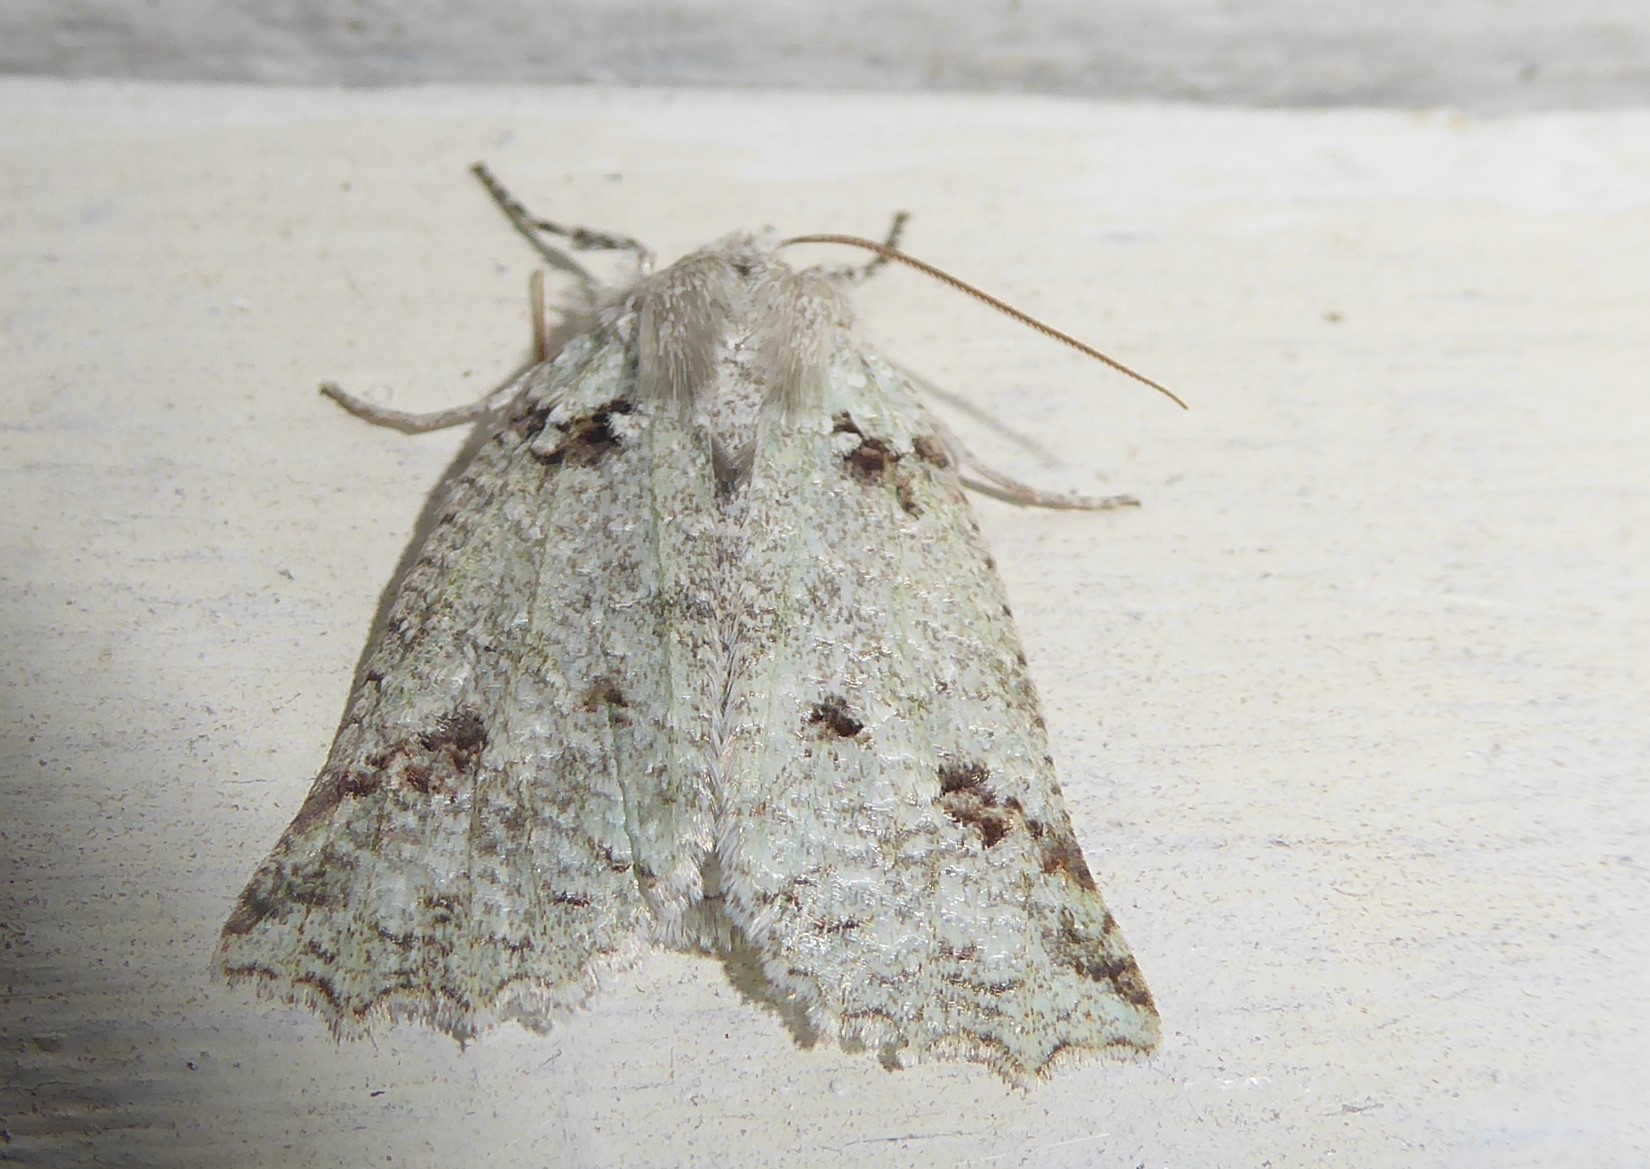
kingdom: Animalia
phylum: Arthropoda
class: Insecta
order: Lepidoptera
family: Geometridae
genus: Declana
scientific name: Declana floccosa
